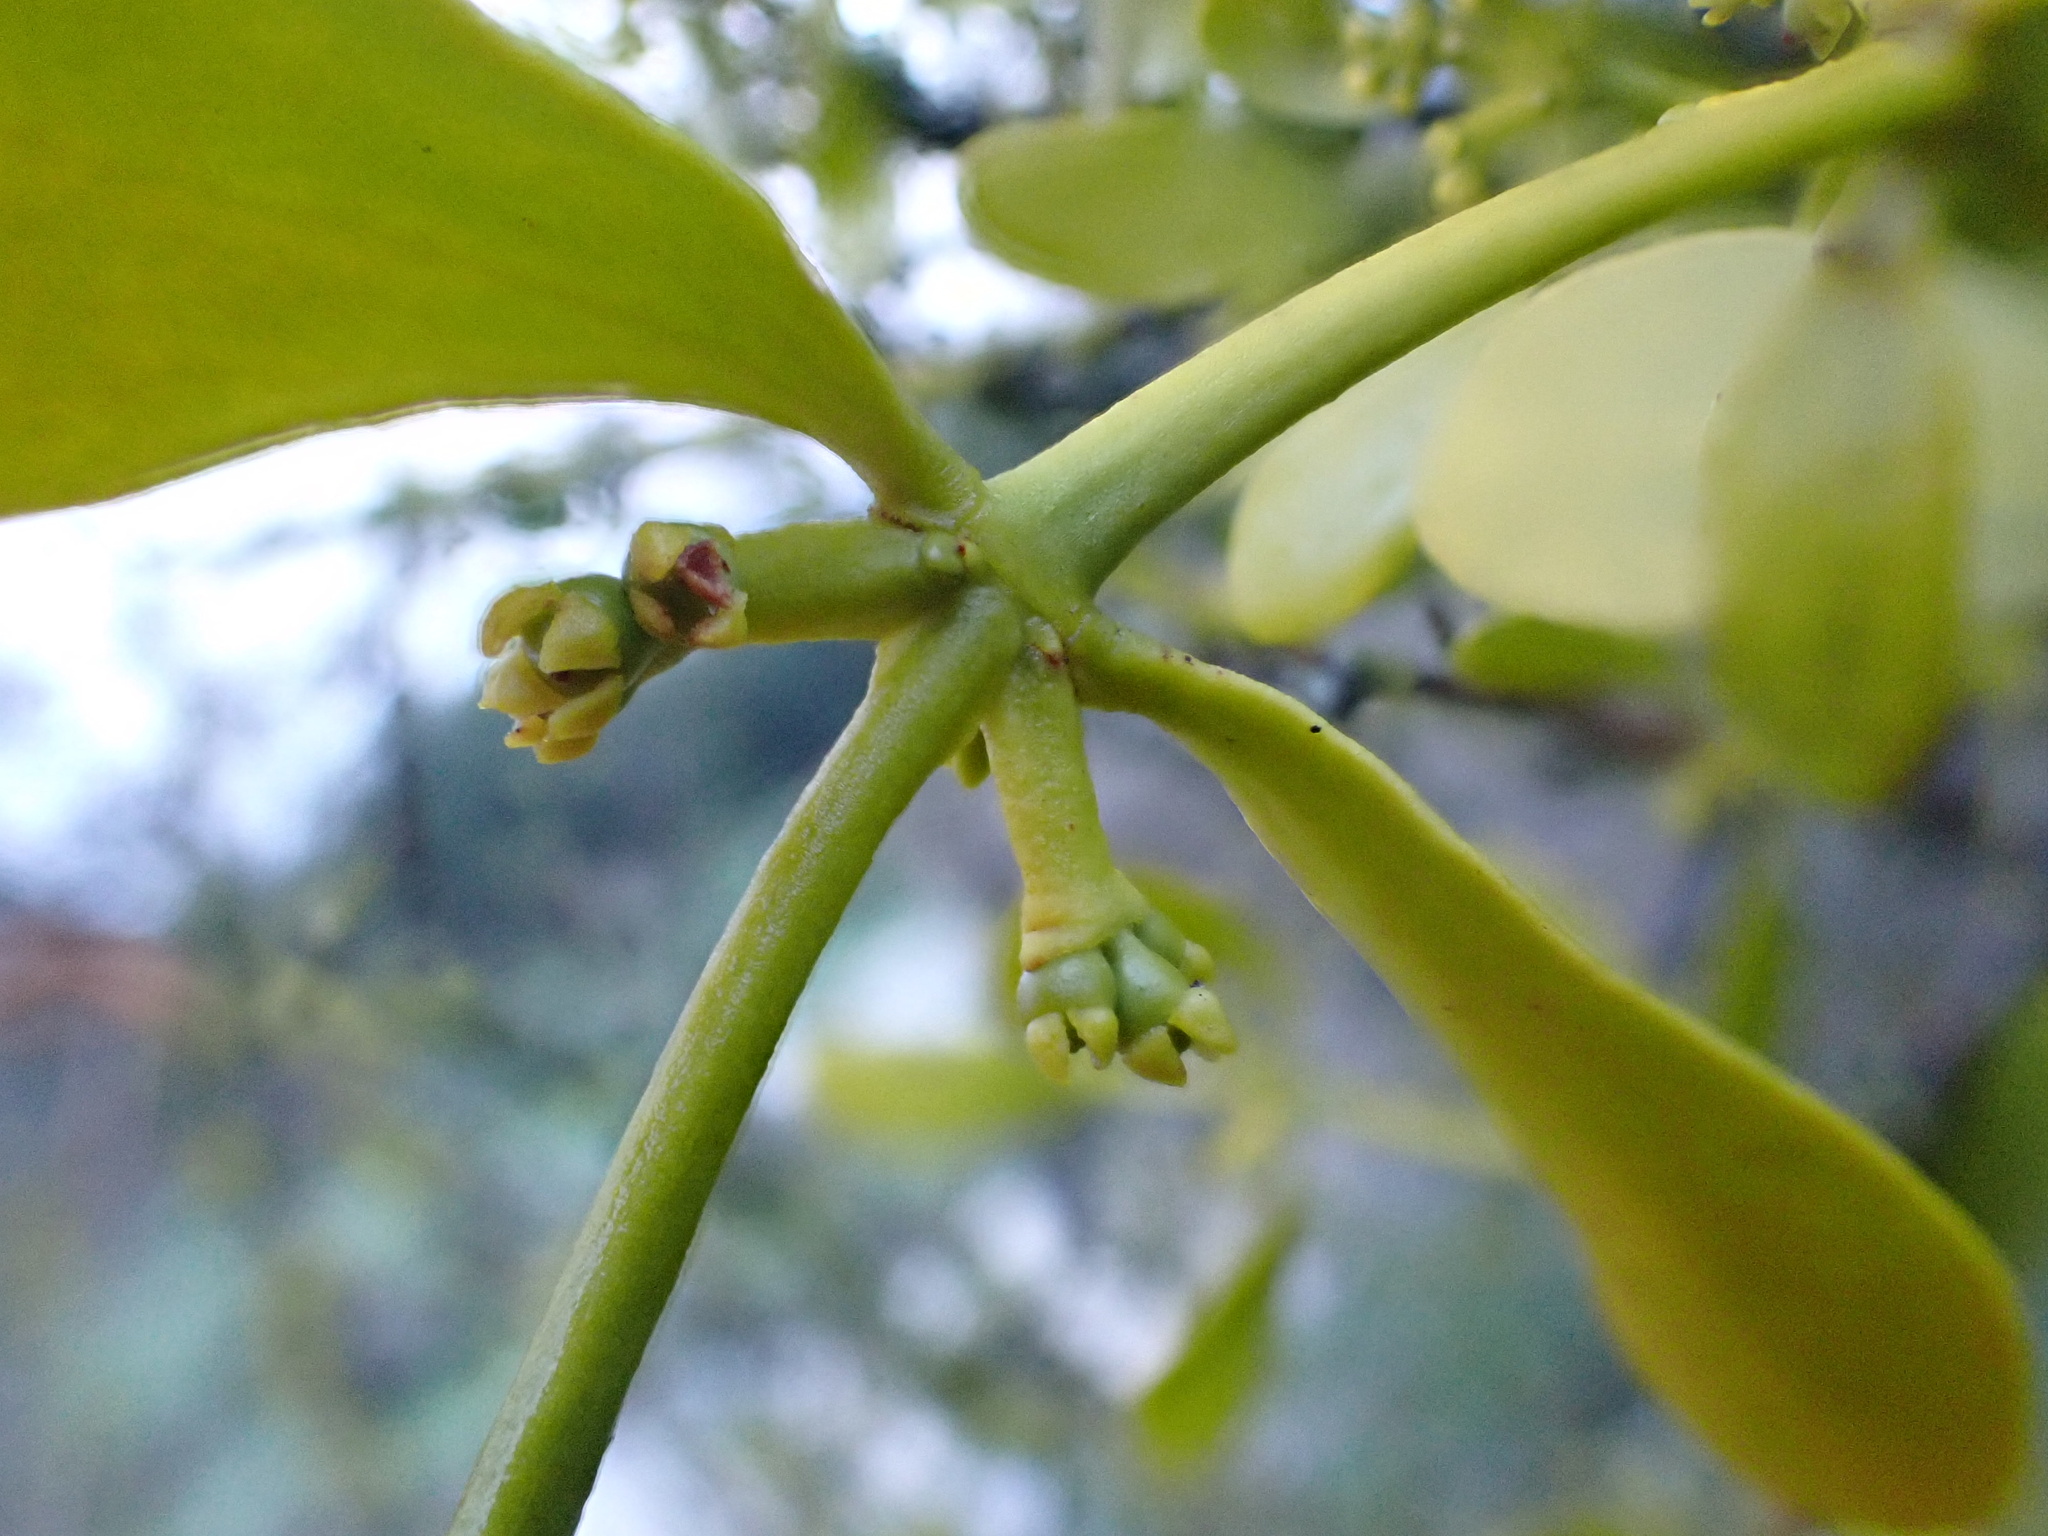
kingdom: Plantae
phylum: Tracheophyta
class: Magnoliopsida
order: Santalales
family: Viscaceae
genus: Viscum
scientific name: Viscum cruciatum
